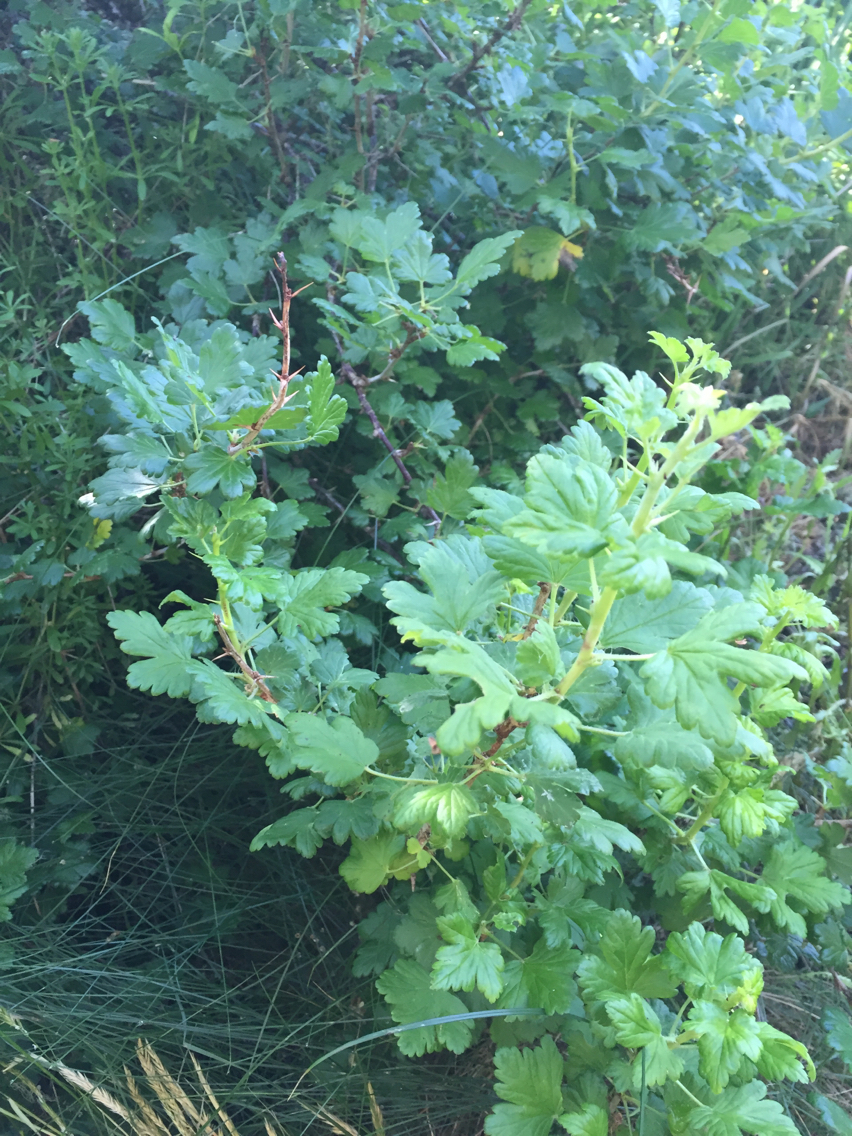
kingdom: Plantae
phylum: Tracheophyta
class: Magnoliopsida
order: Saxifragales
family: Grossulariaceae
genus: Ribes
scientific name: Ribes uva-crispa
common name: Gooseberry
